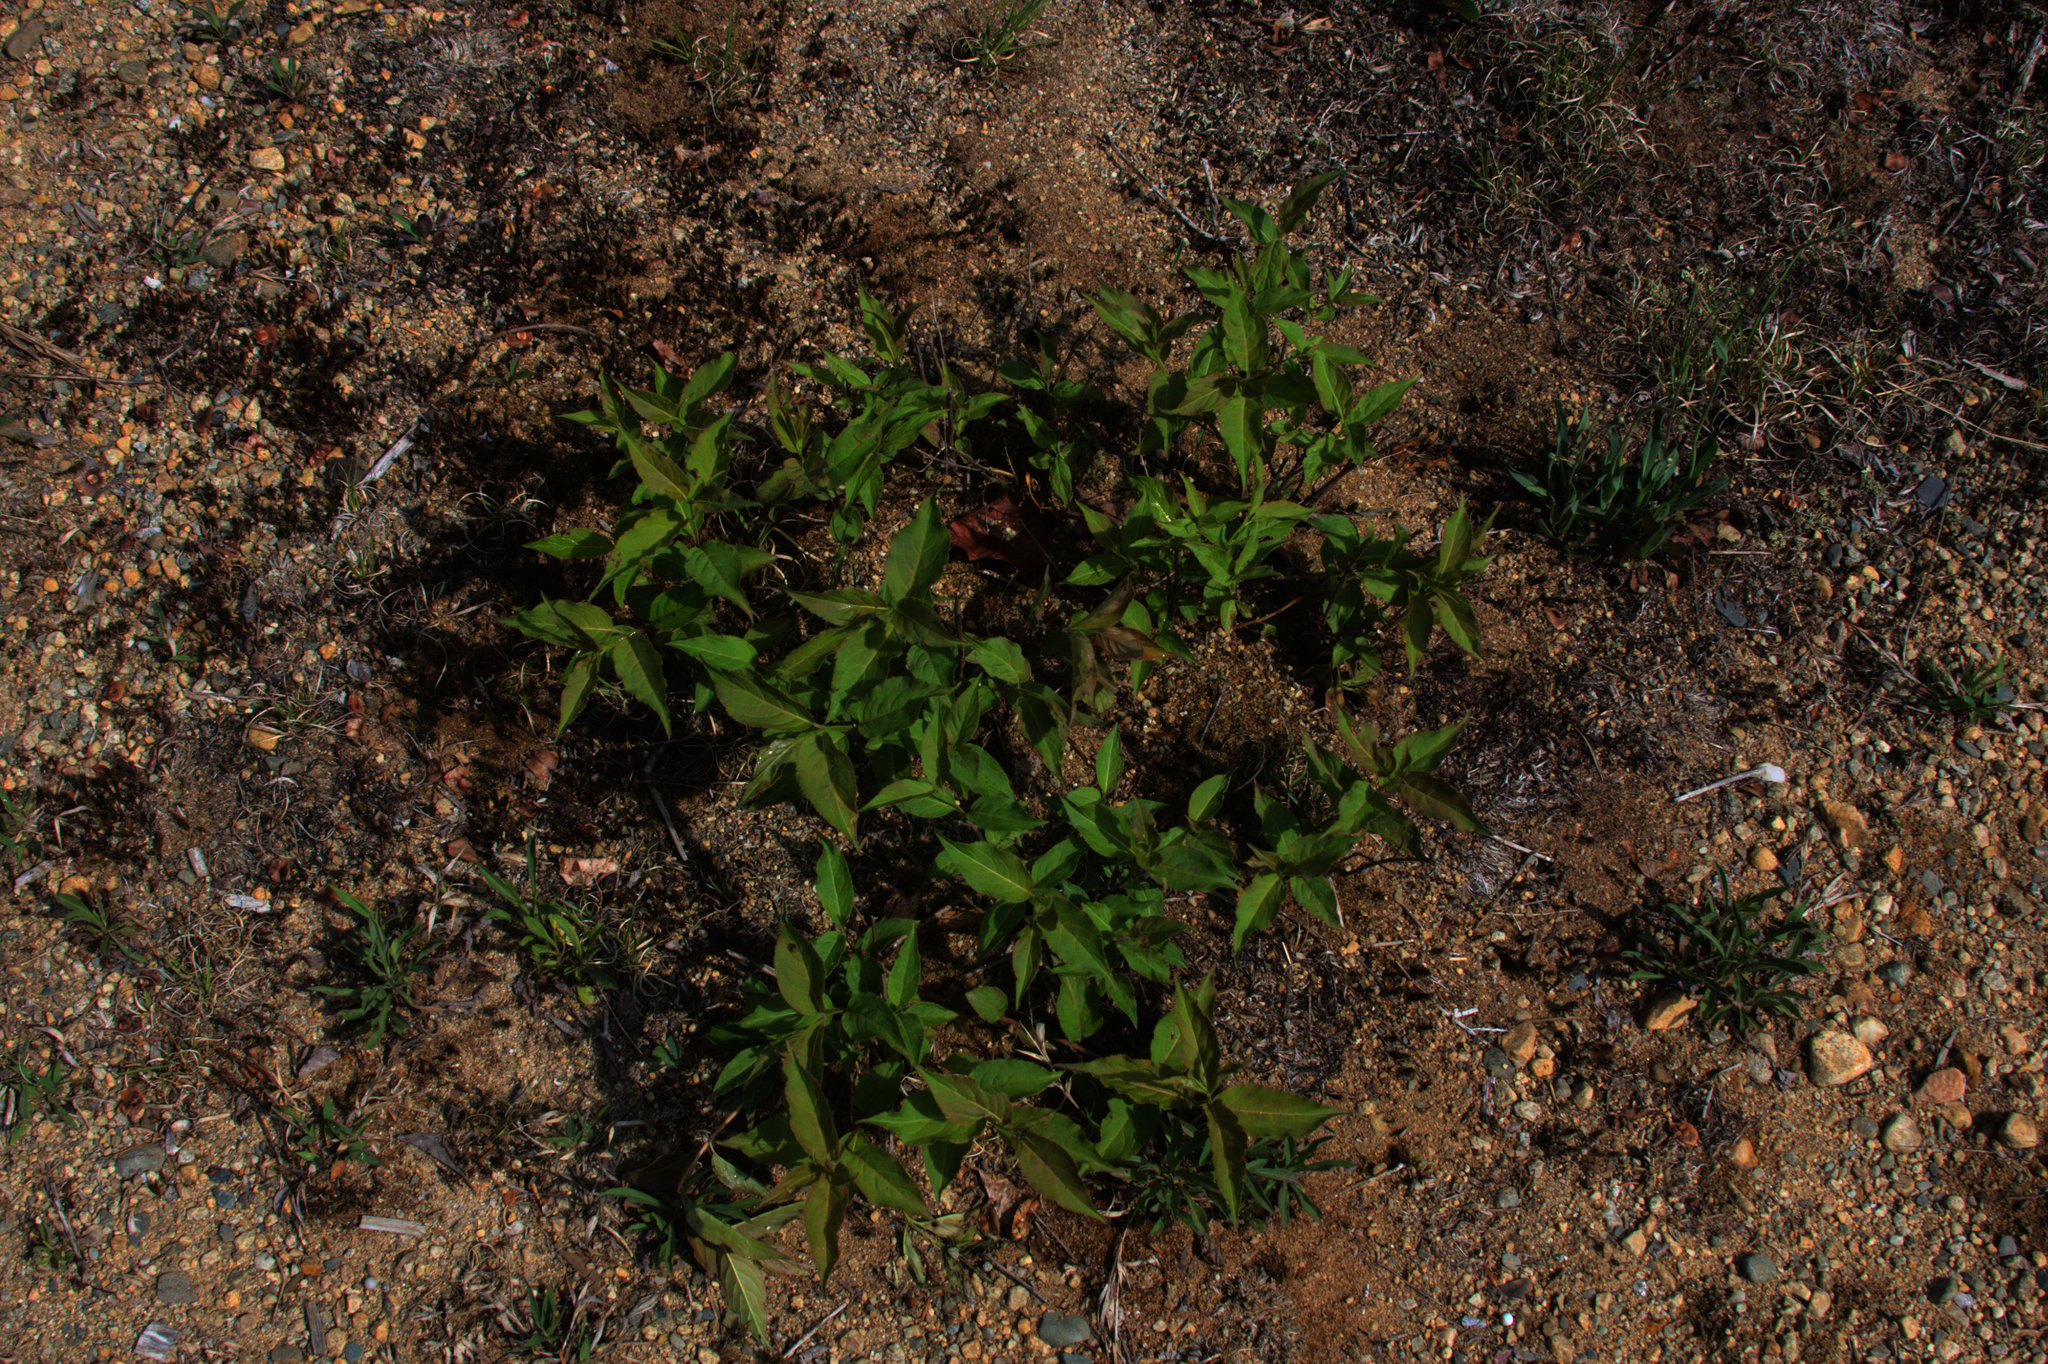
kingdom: Plantae
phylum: Tracheophyta
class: Magnoliopsida
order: Dipsacales
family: Caprifoliaceae
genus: Diervilla
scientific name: Diervilla lonicera
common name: Bush-honeysuckle
